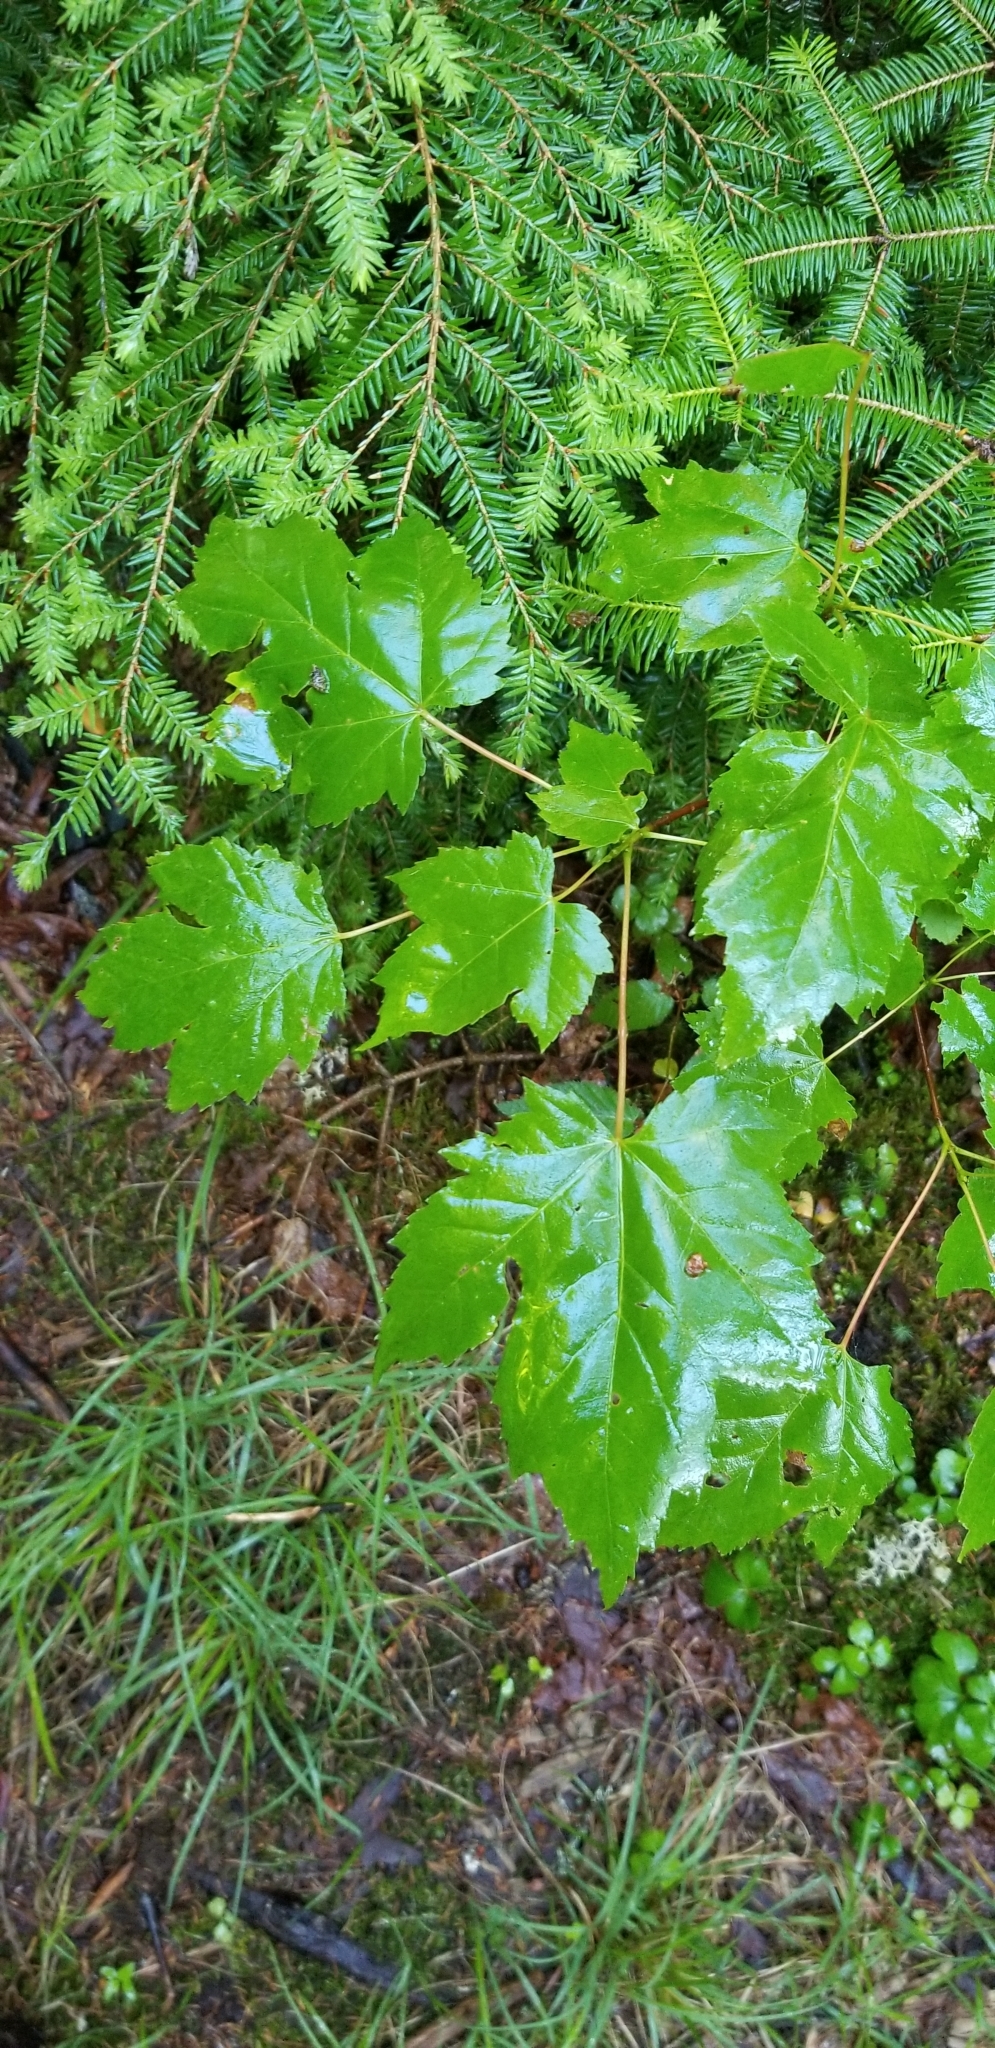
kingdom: Plantae
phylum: Tracheophyta
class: Magnoliopsida
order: Sapindales
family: Sapindaceae
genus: Acer
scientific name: Acer rubrum
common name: Red maple
